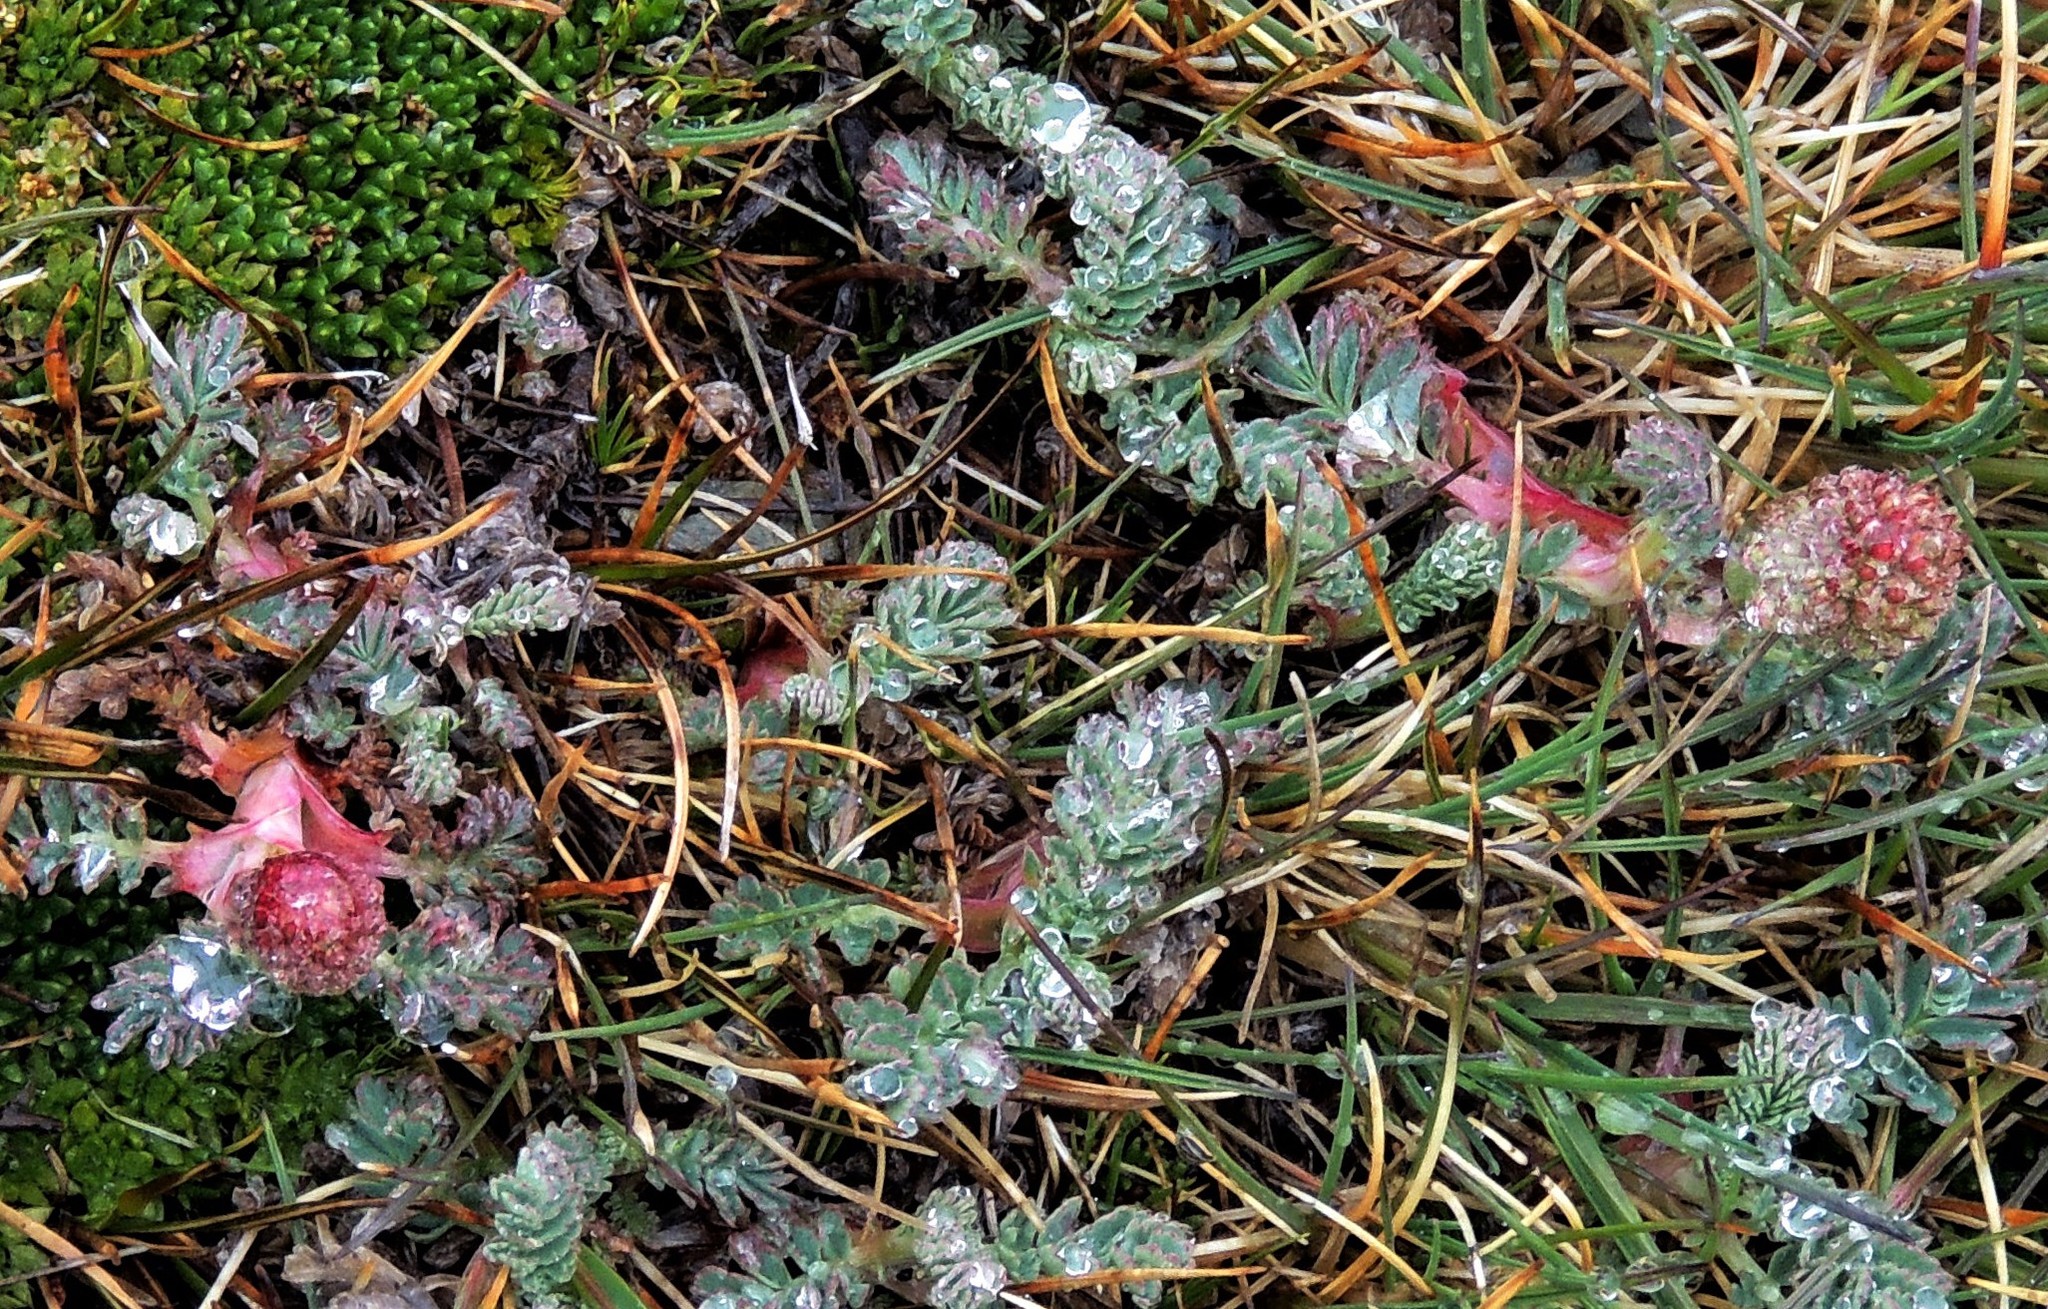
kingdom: Plantae
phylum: Tracheophyta
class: Magnoliopsida
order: Rosales
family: Rosaceae
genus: Acaena
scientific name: Acaena magellanica
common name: New zealand burr
